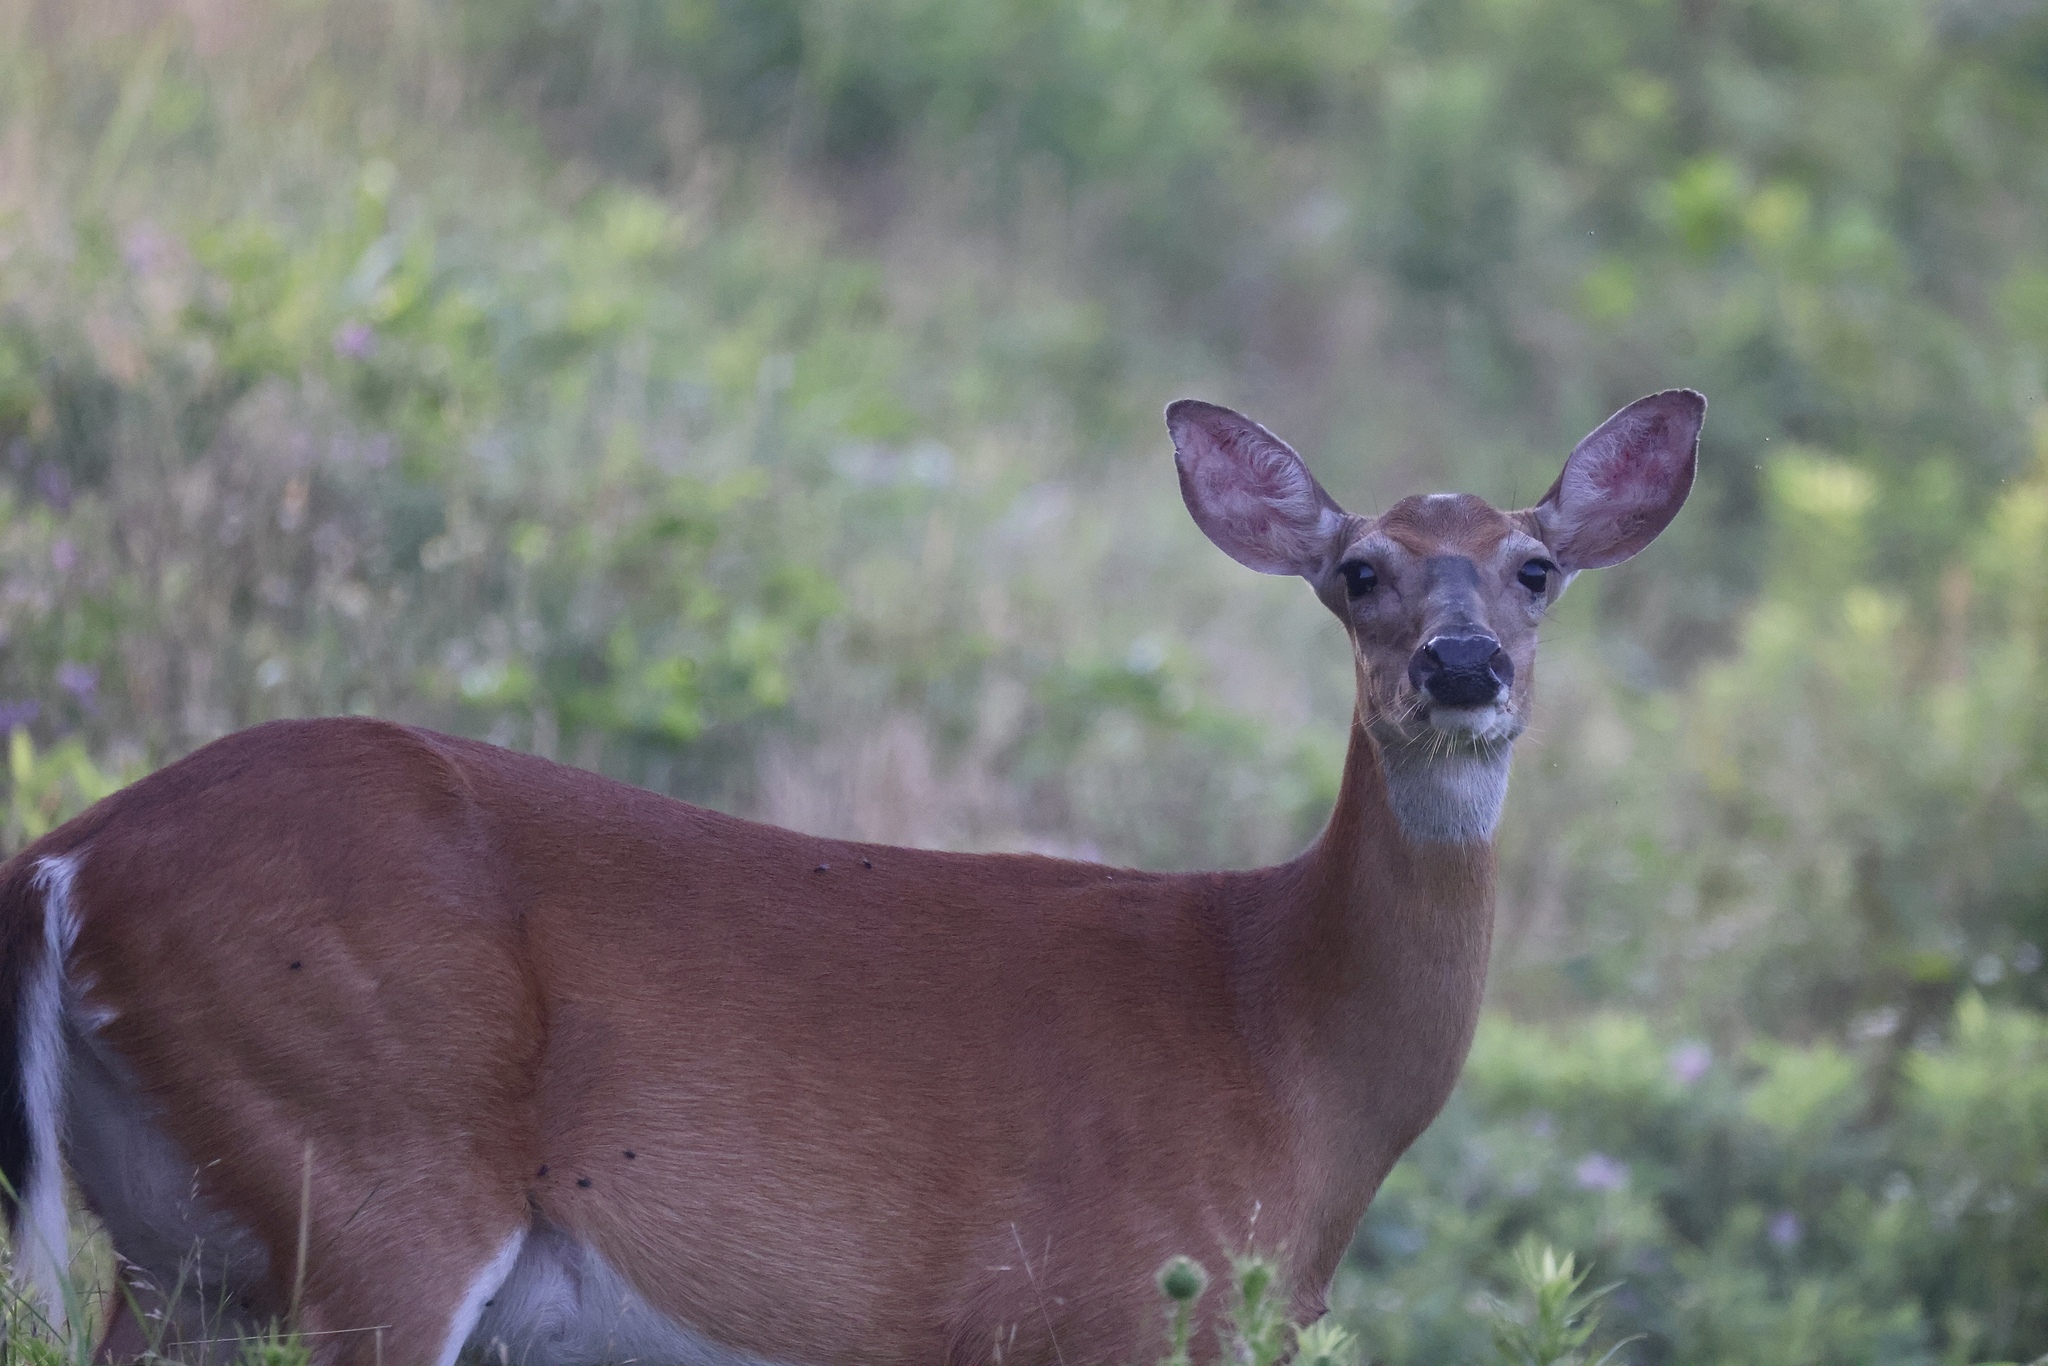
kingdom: Animalia
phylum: Chordata
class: Mammalia
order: Artiodactyla
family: Cervidae
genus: Odocoileus
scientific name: Odocoileus virginianus
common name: White-tailed deer
